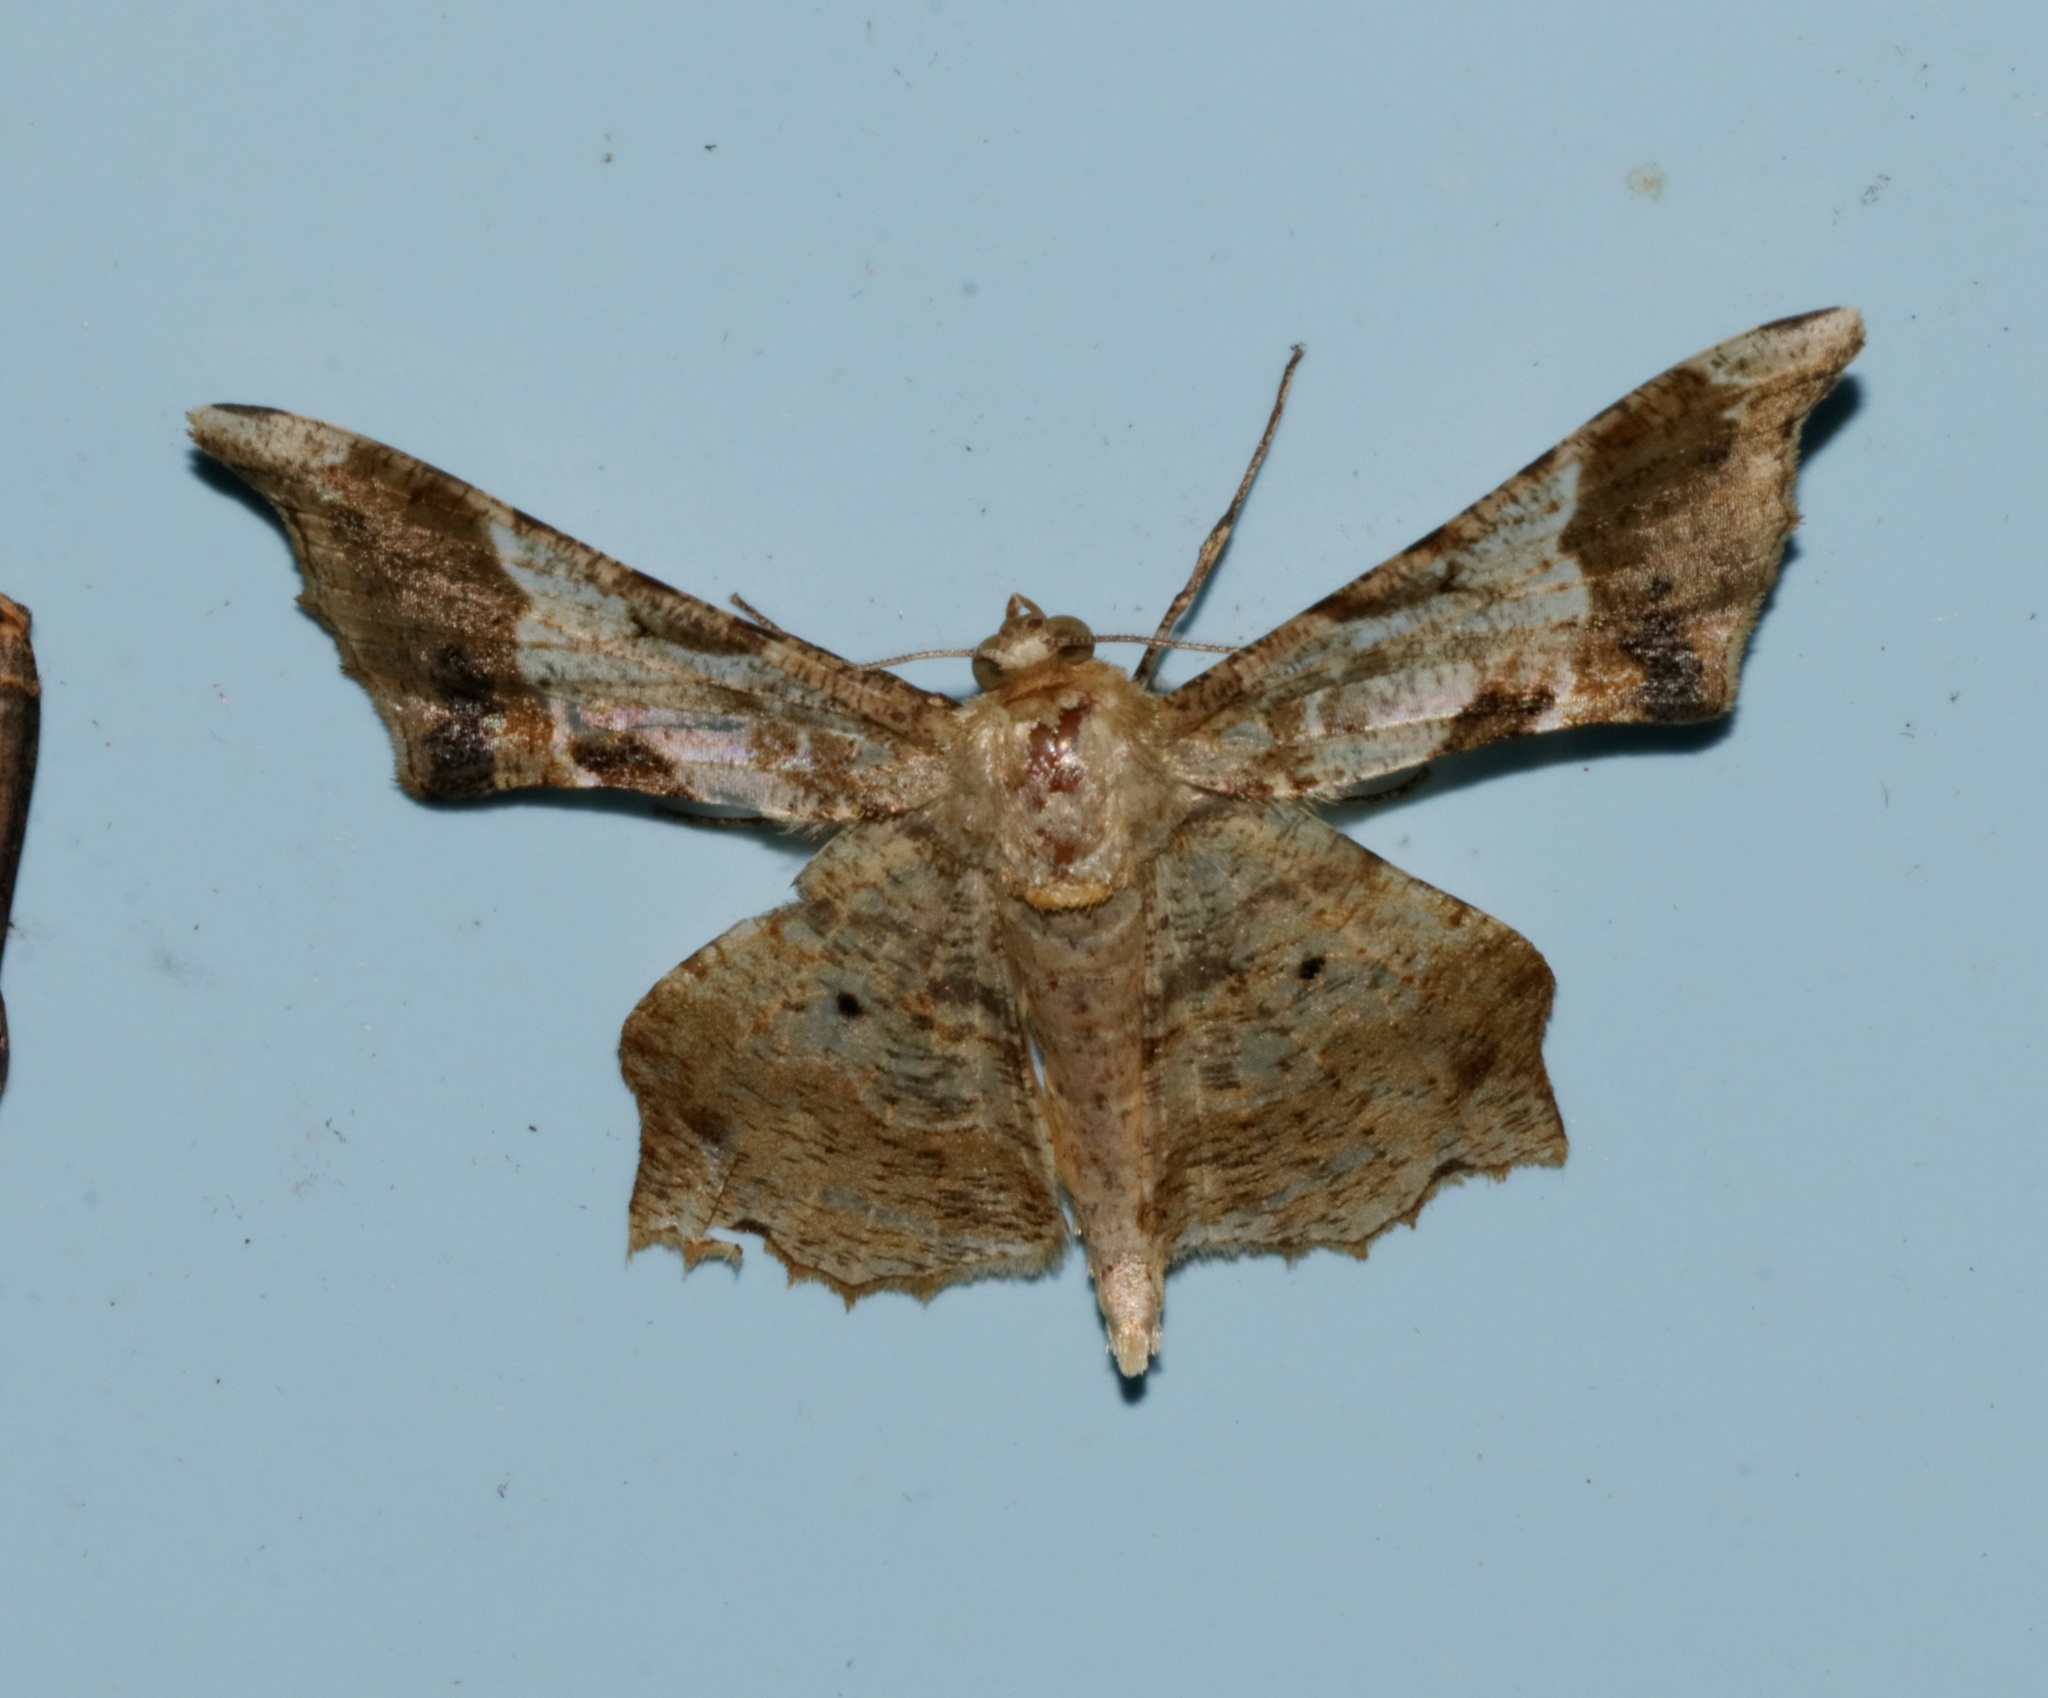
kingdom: Animalia
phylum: Arthropoda
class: Insecta
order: Lepidoptera
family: Geometridae
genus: Krananda
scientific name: Krananda oliveomarginata
